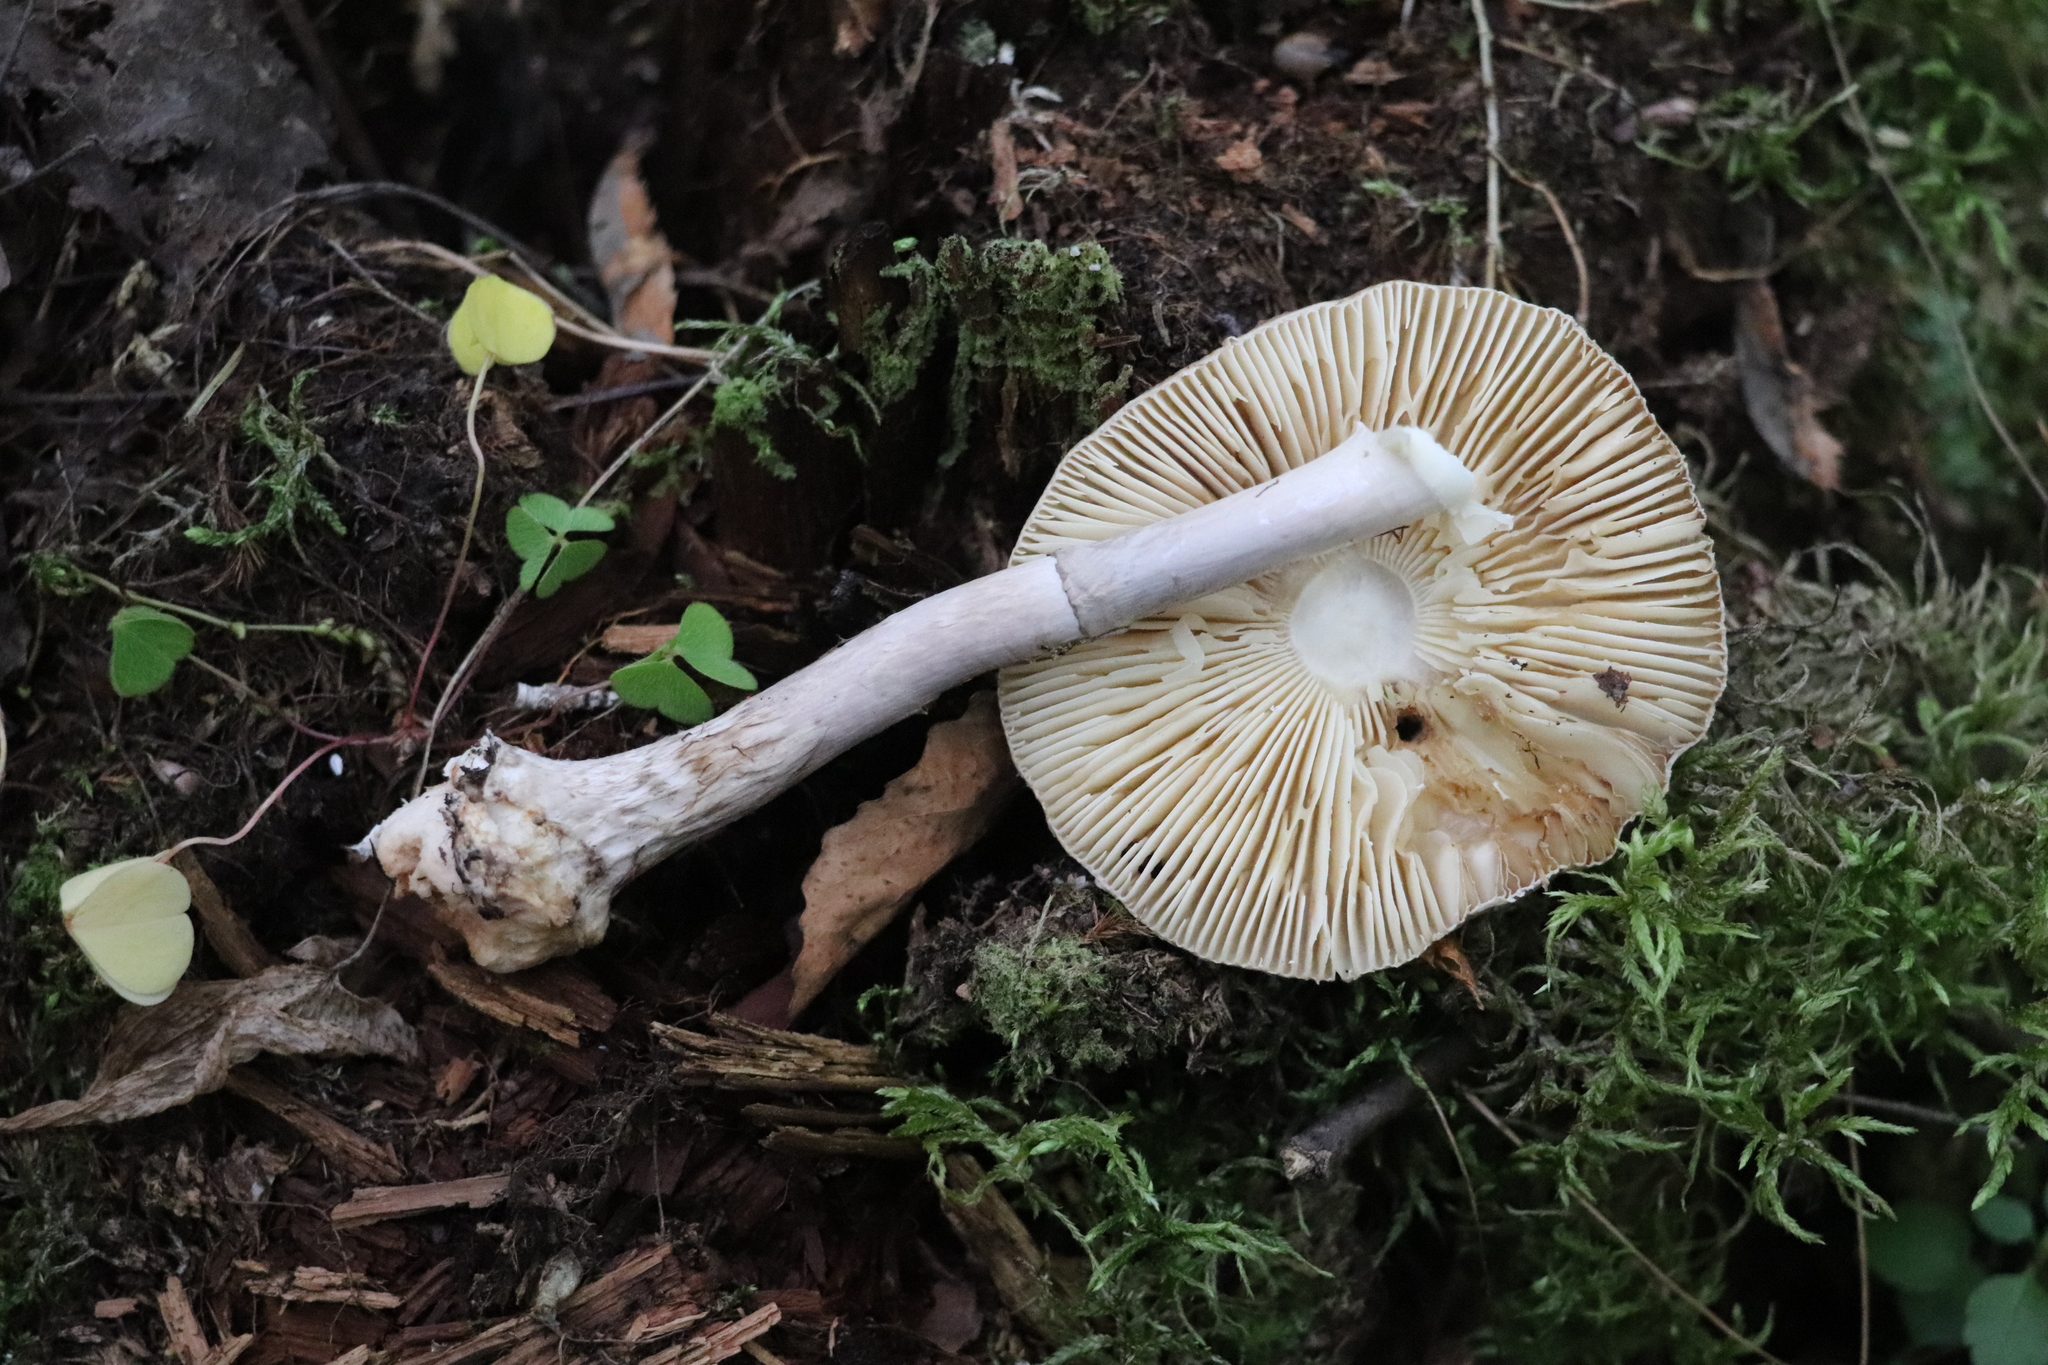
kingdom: Fungi
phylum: Basidiomycota
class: Agaricomycetes
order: Agaricales
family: Amanitaceae
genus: Amanita
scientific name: Amanita porphyria
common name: Grey veiled amanita
